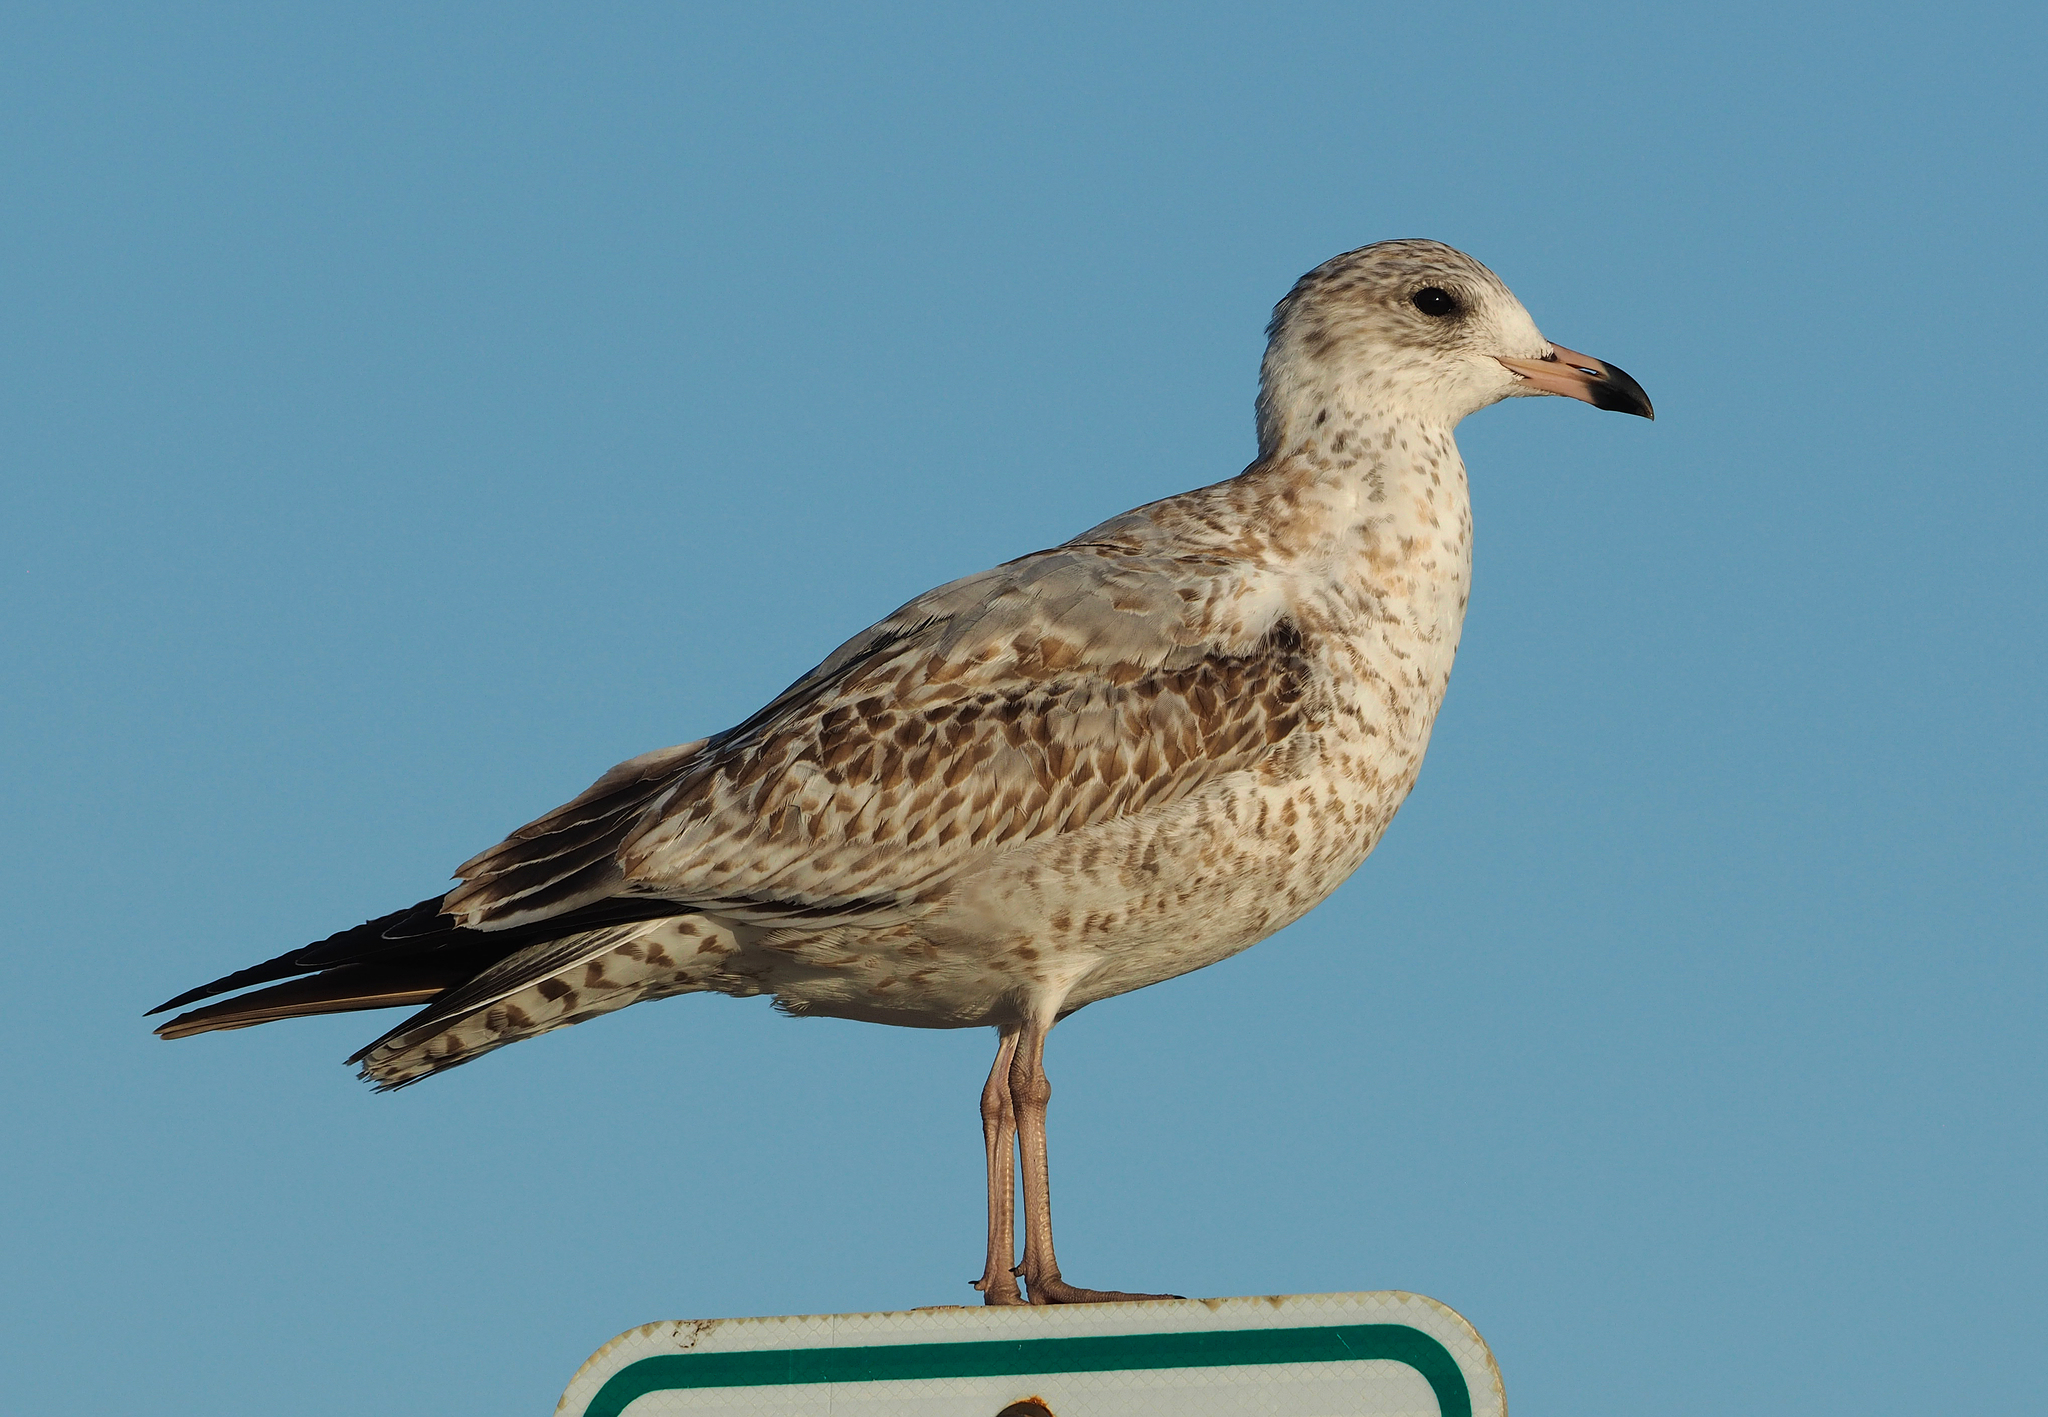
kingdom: Animalia
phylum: Chordata
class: Aves
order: Charadriiformes
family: Laridae
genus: Larus
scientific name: Larus delawarensis
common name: Ring-billed gull
